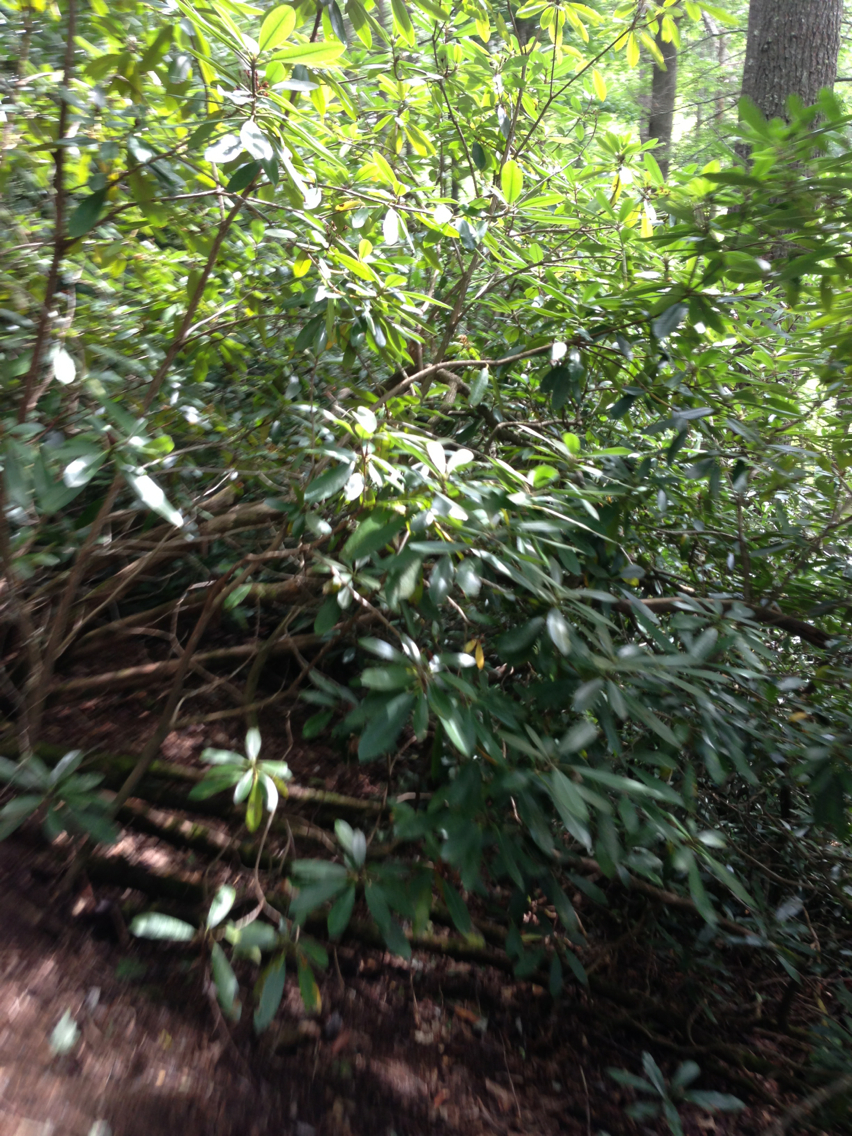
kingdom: Plantae
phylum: Tracheophyta
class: Magnoliopsida
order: Ericales
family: Ericaceae
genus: Rhododendron
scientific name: Rhododendron maximum
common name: Great rhododendron
